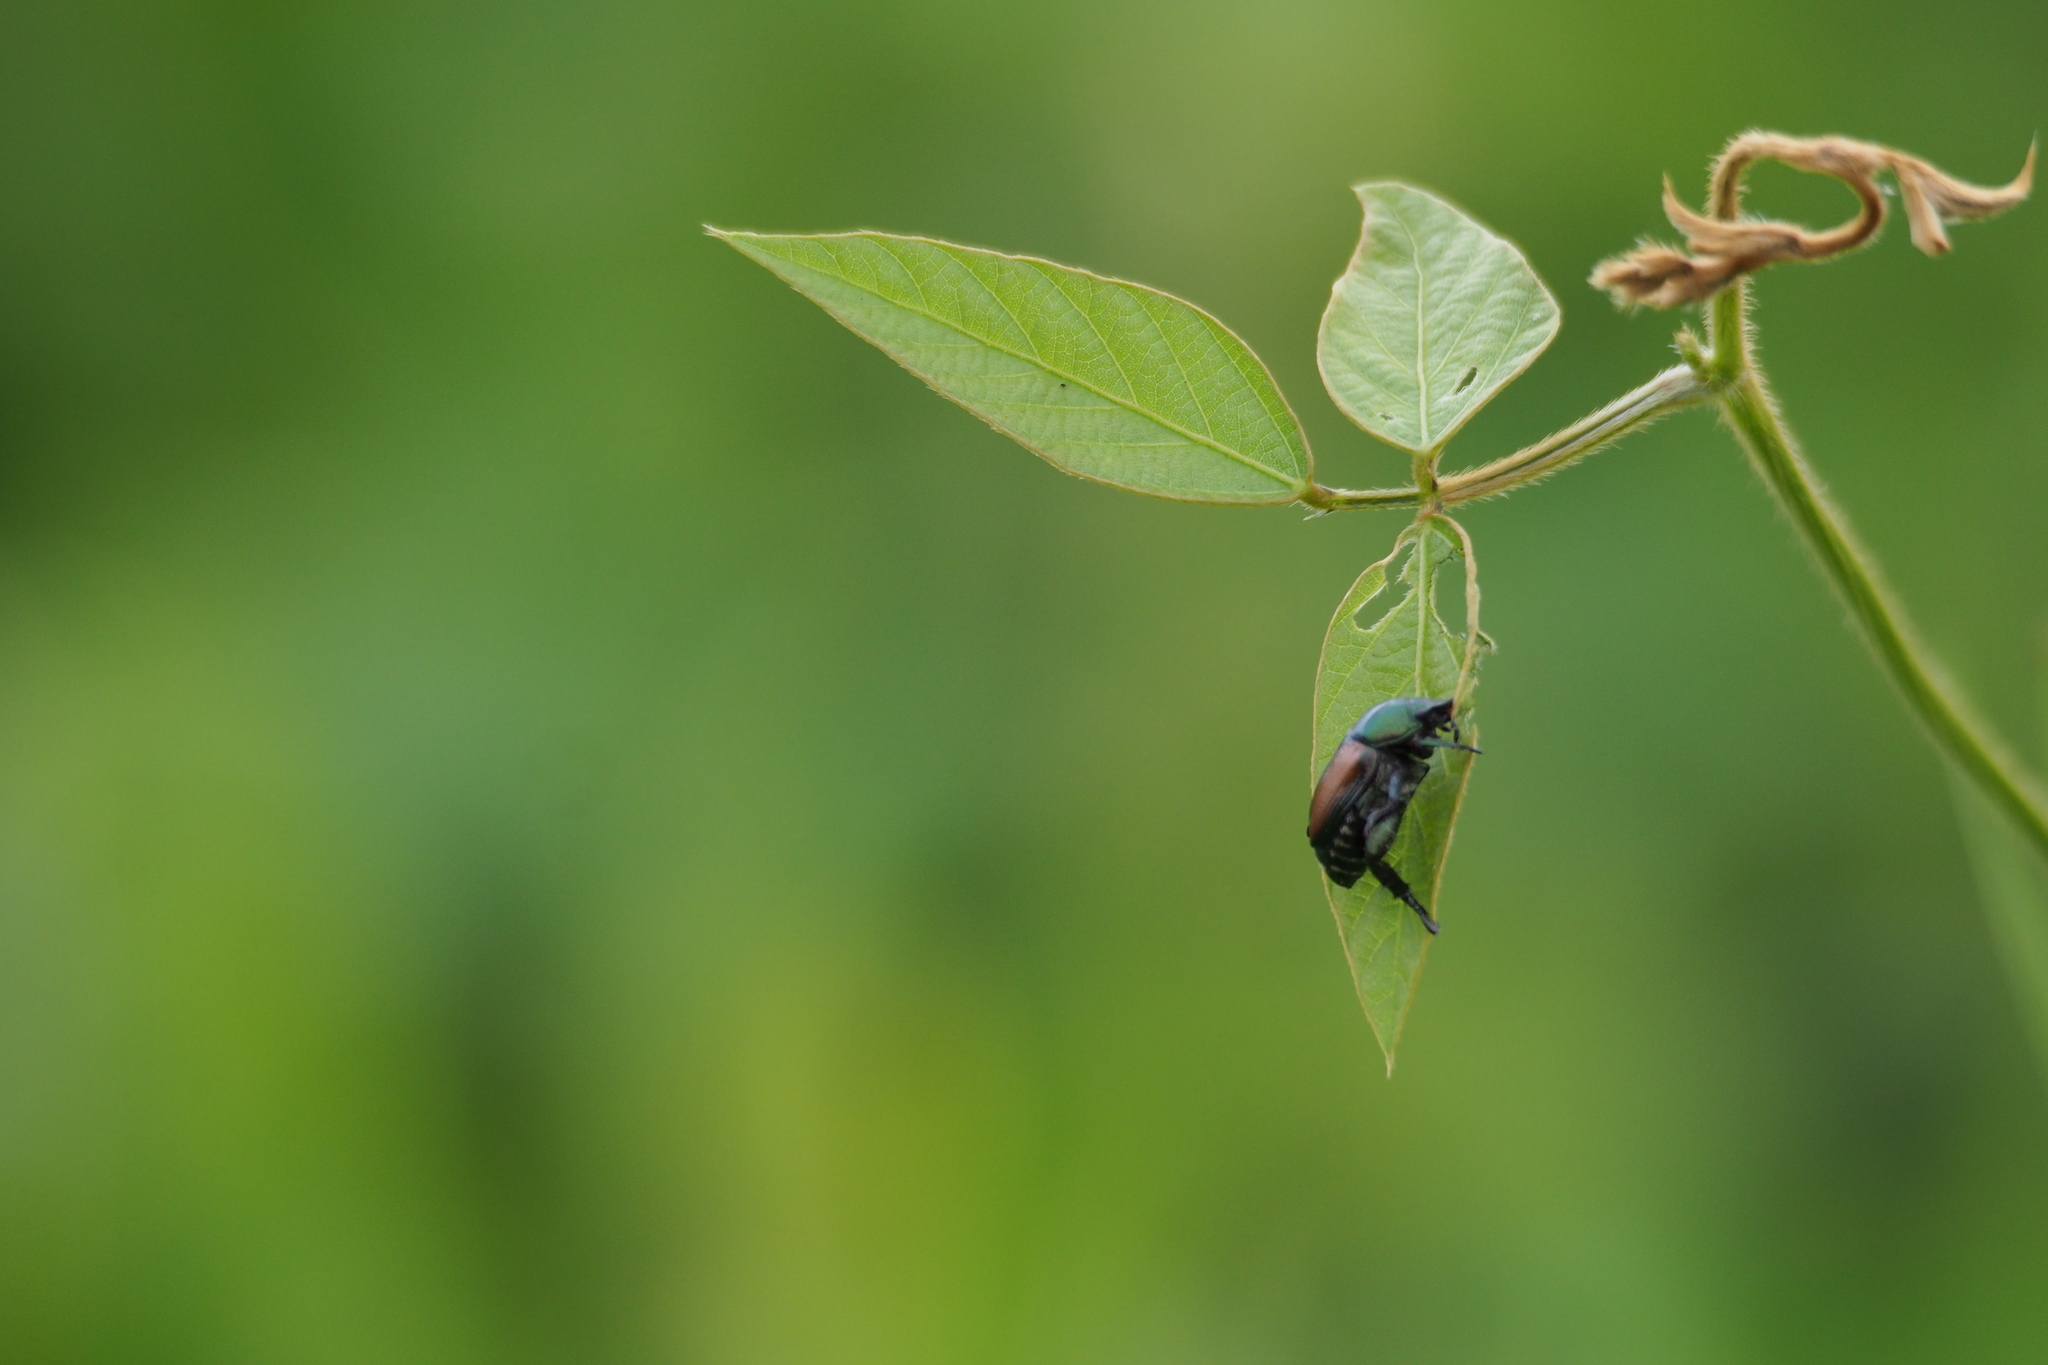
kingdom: Animalia
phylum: Arthropoda
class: Insecta
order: Coleoptera
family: Scarabaeidae
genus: Popillia
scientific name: Popillia japonica
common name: Japanese beetle
